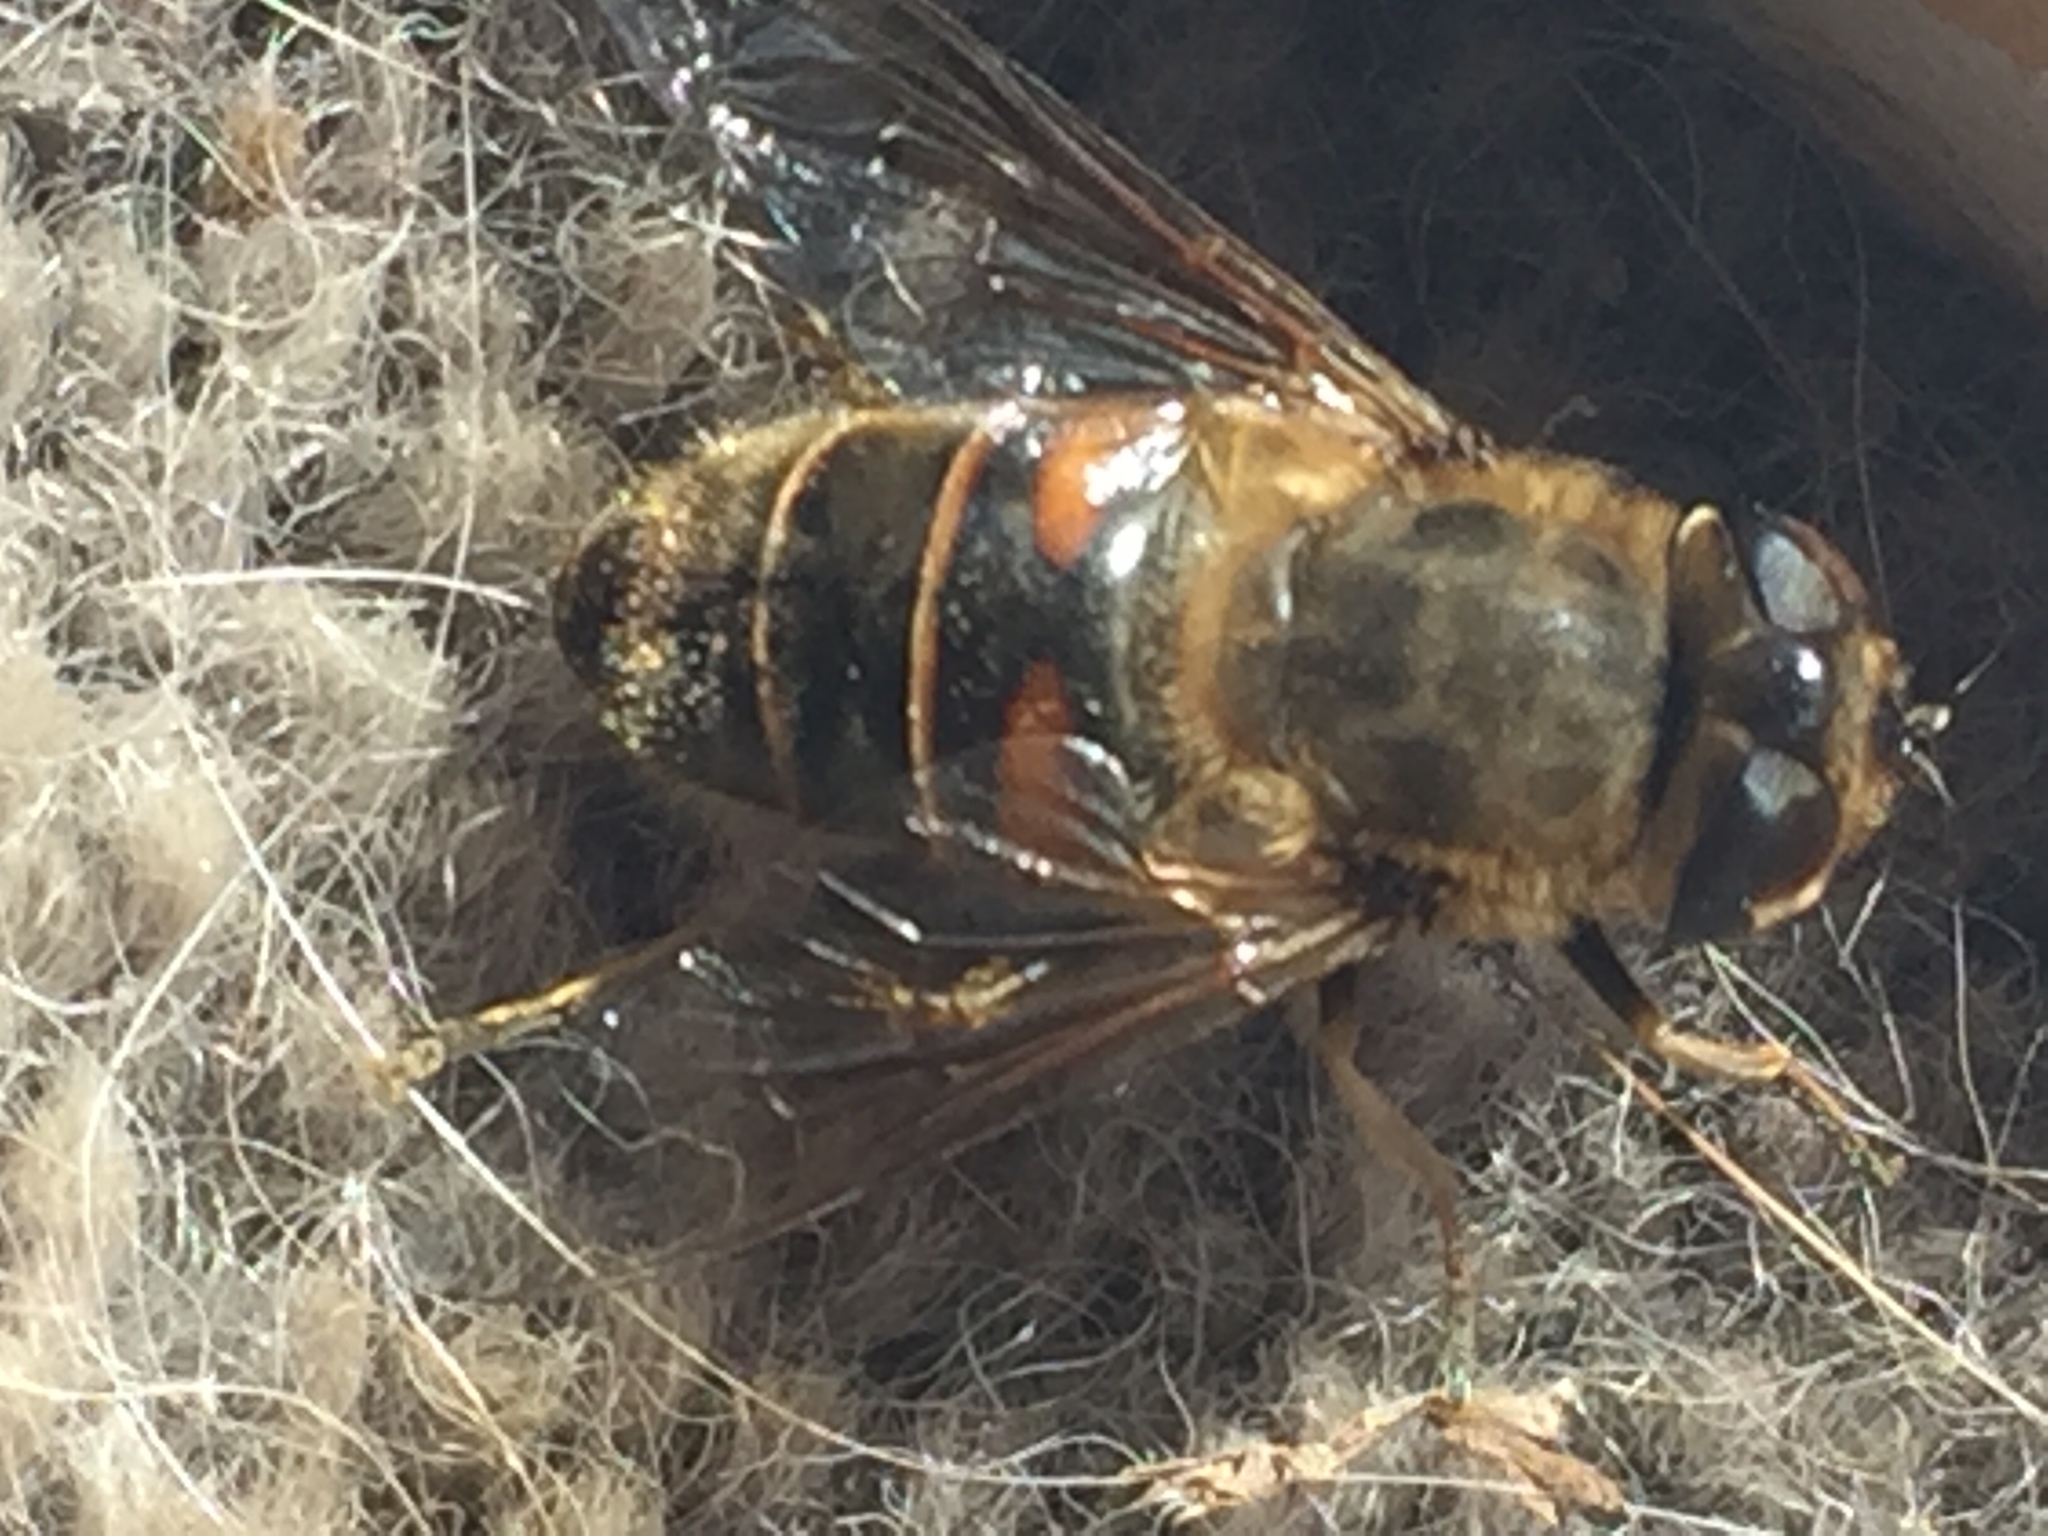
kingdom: Animalia
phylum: Arthropoda
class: Insecta
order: Diptera
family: Syrphidae
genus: Eristalis
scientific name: Eristalis tenax
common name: Drone fly
